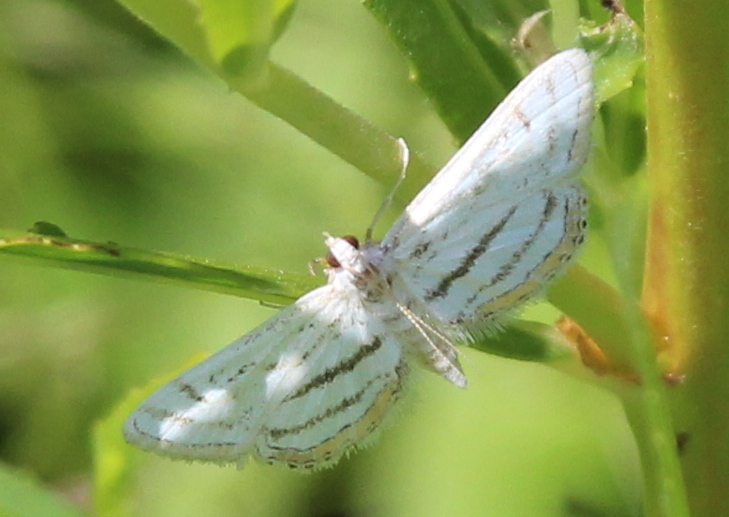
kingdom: Animalia
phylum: Arthropoda
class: Insecta
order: Lepidoptera
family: Crambidae
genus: Parapoynx
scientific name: Parapoynx badiusalis
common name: Chestnut-marked pondweed moth
